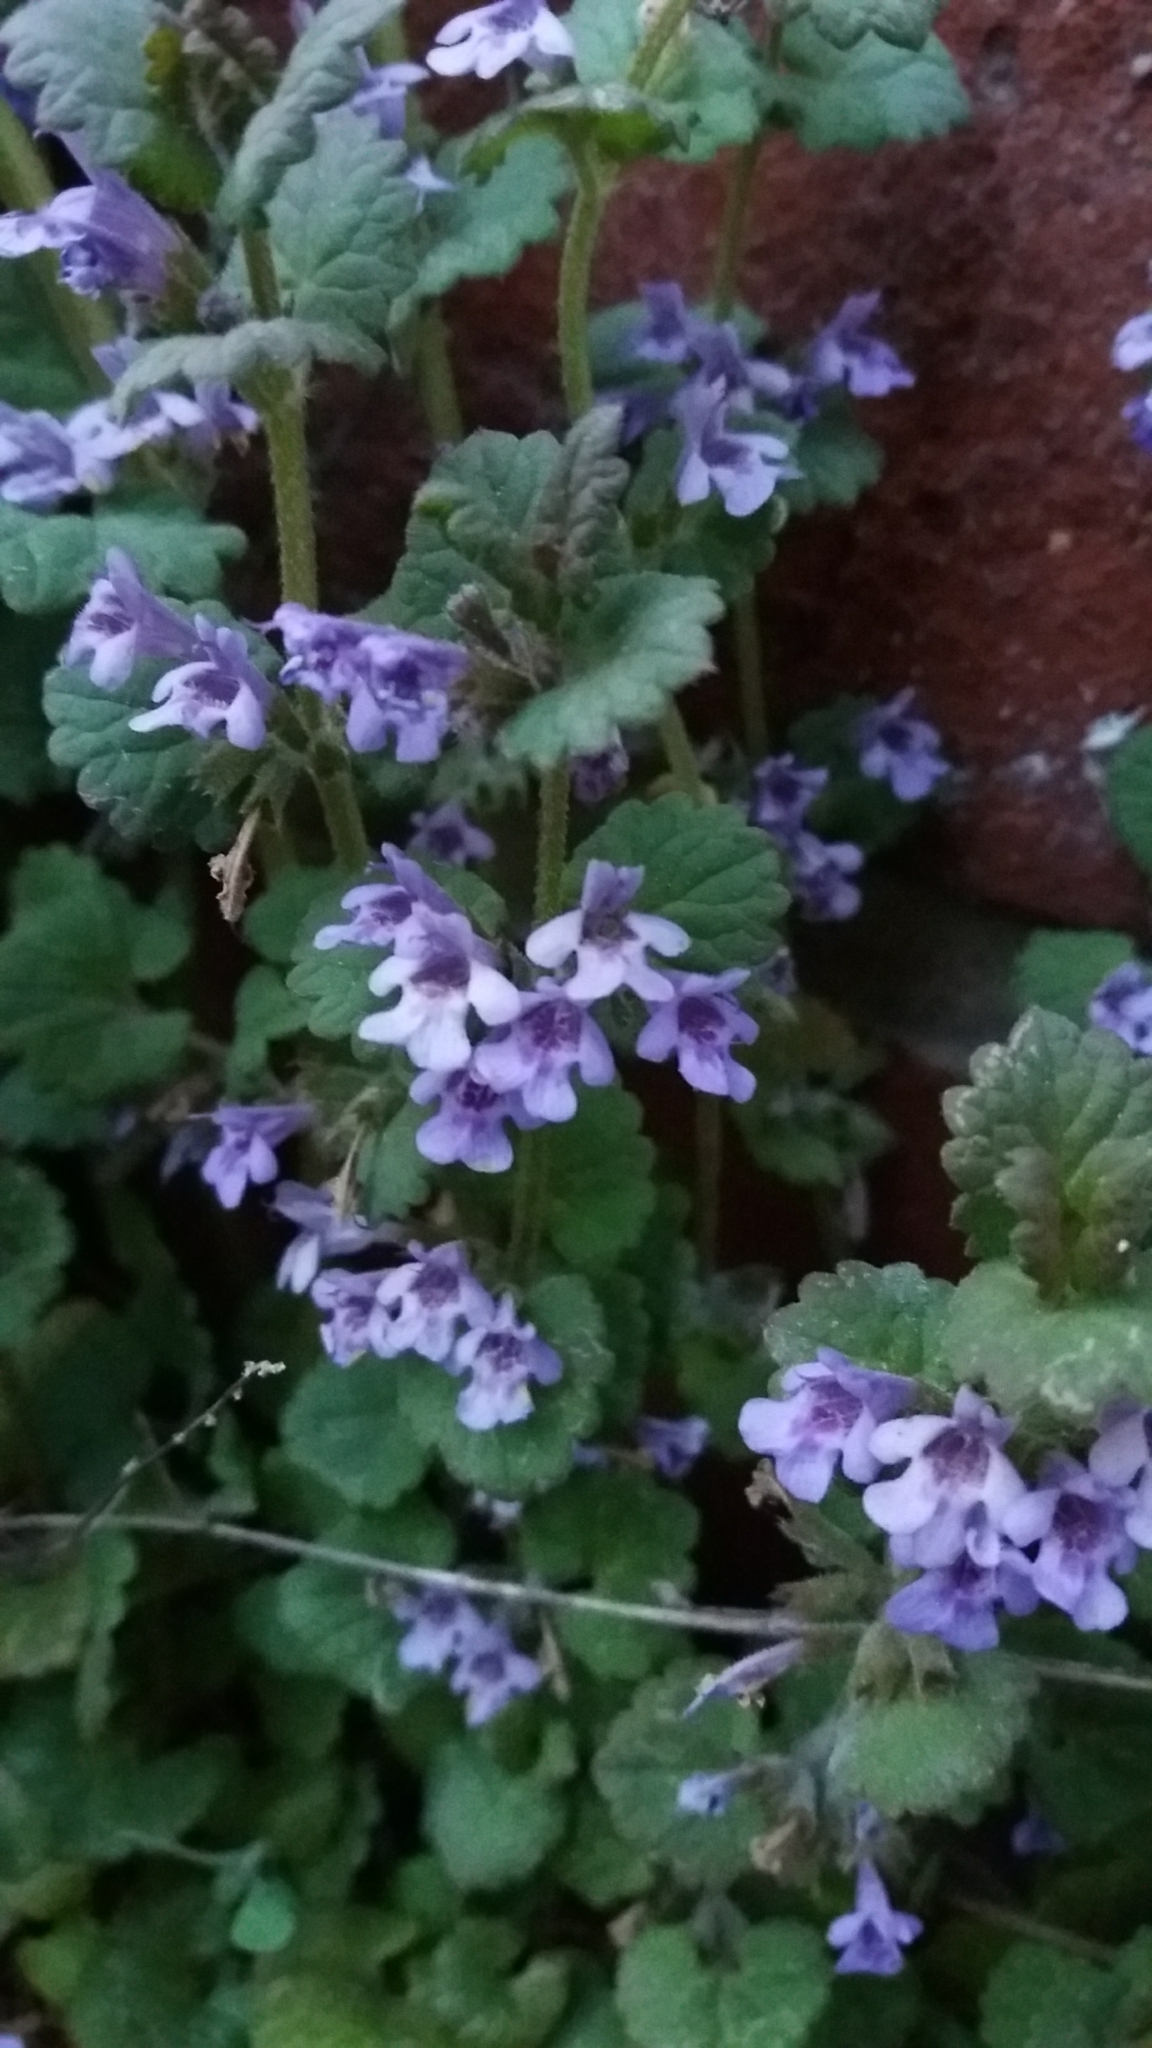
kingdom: Plantae
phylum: Tracheophyta
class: Magnoliopsida
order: Lamiales
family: Lamiaceae
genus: Glechoma
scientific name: Glechoma hederacea
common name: Ground ivy
